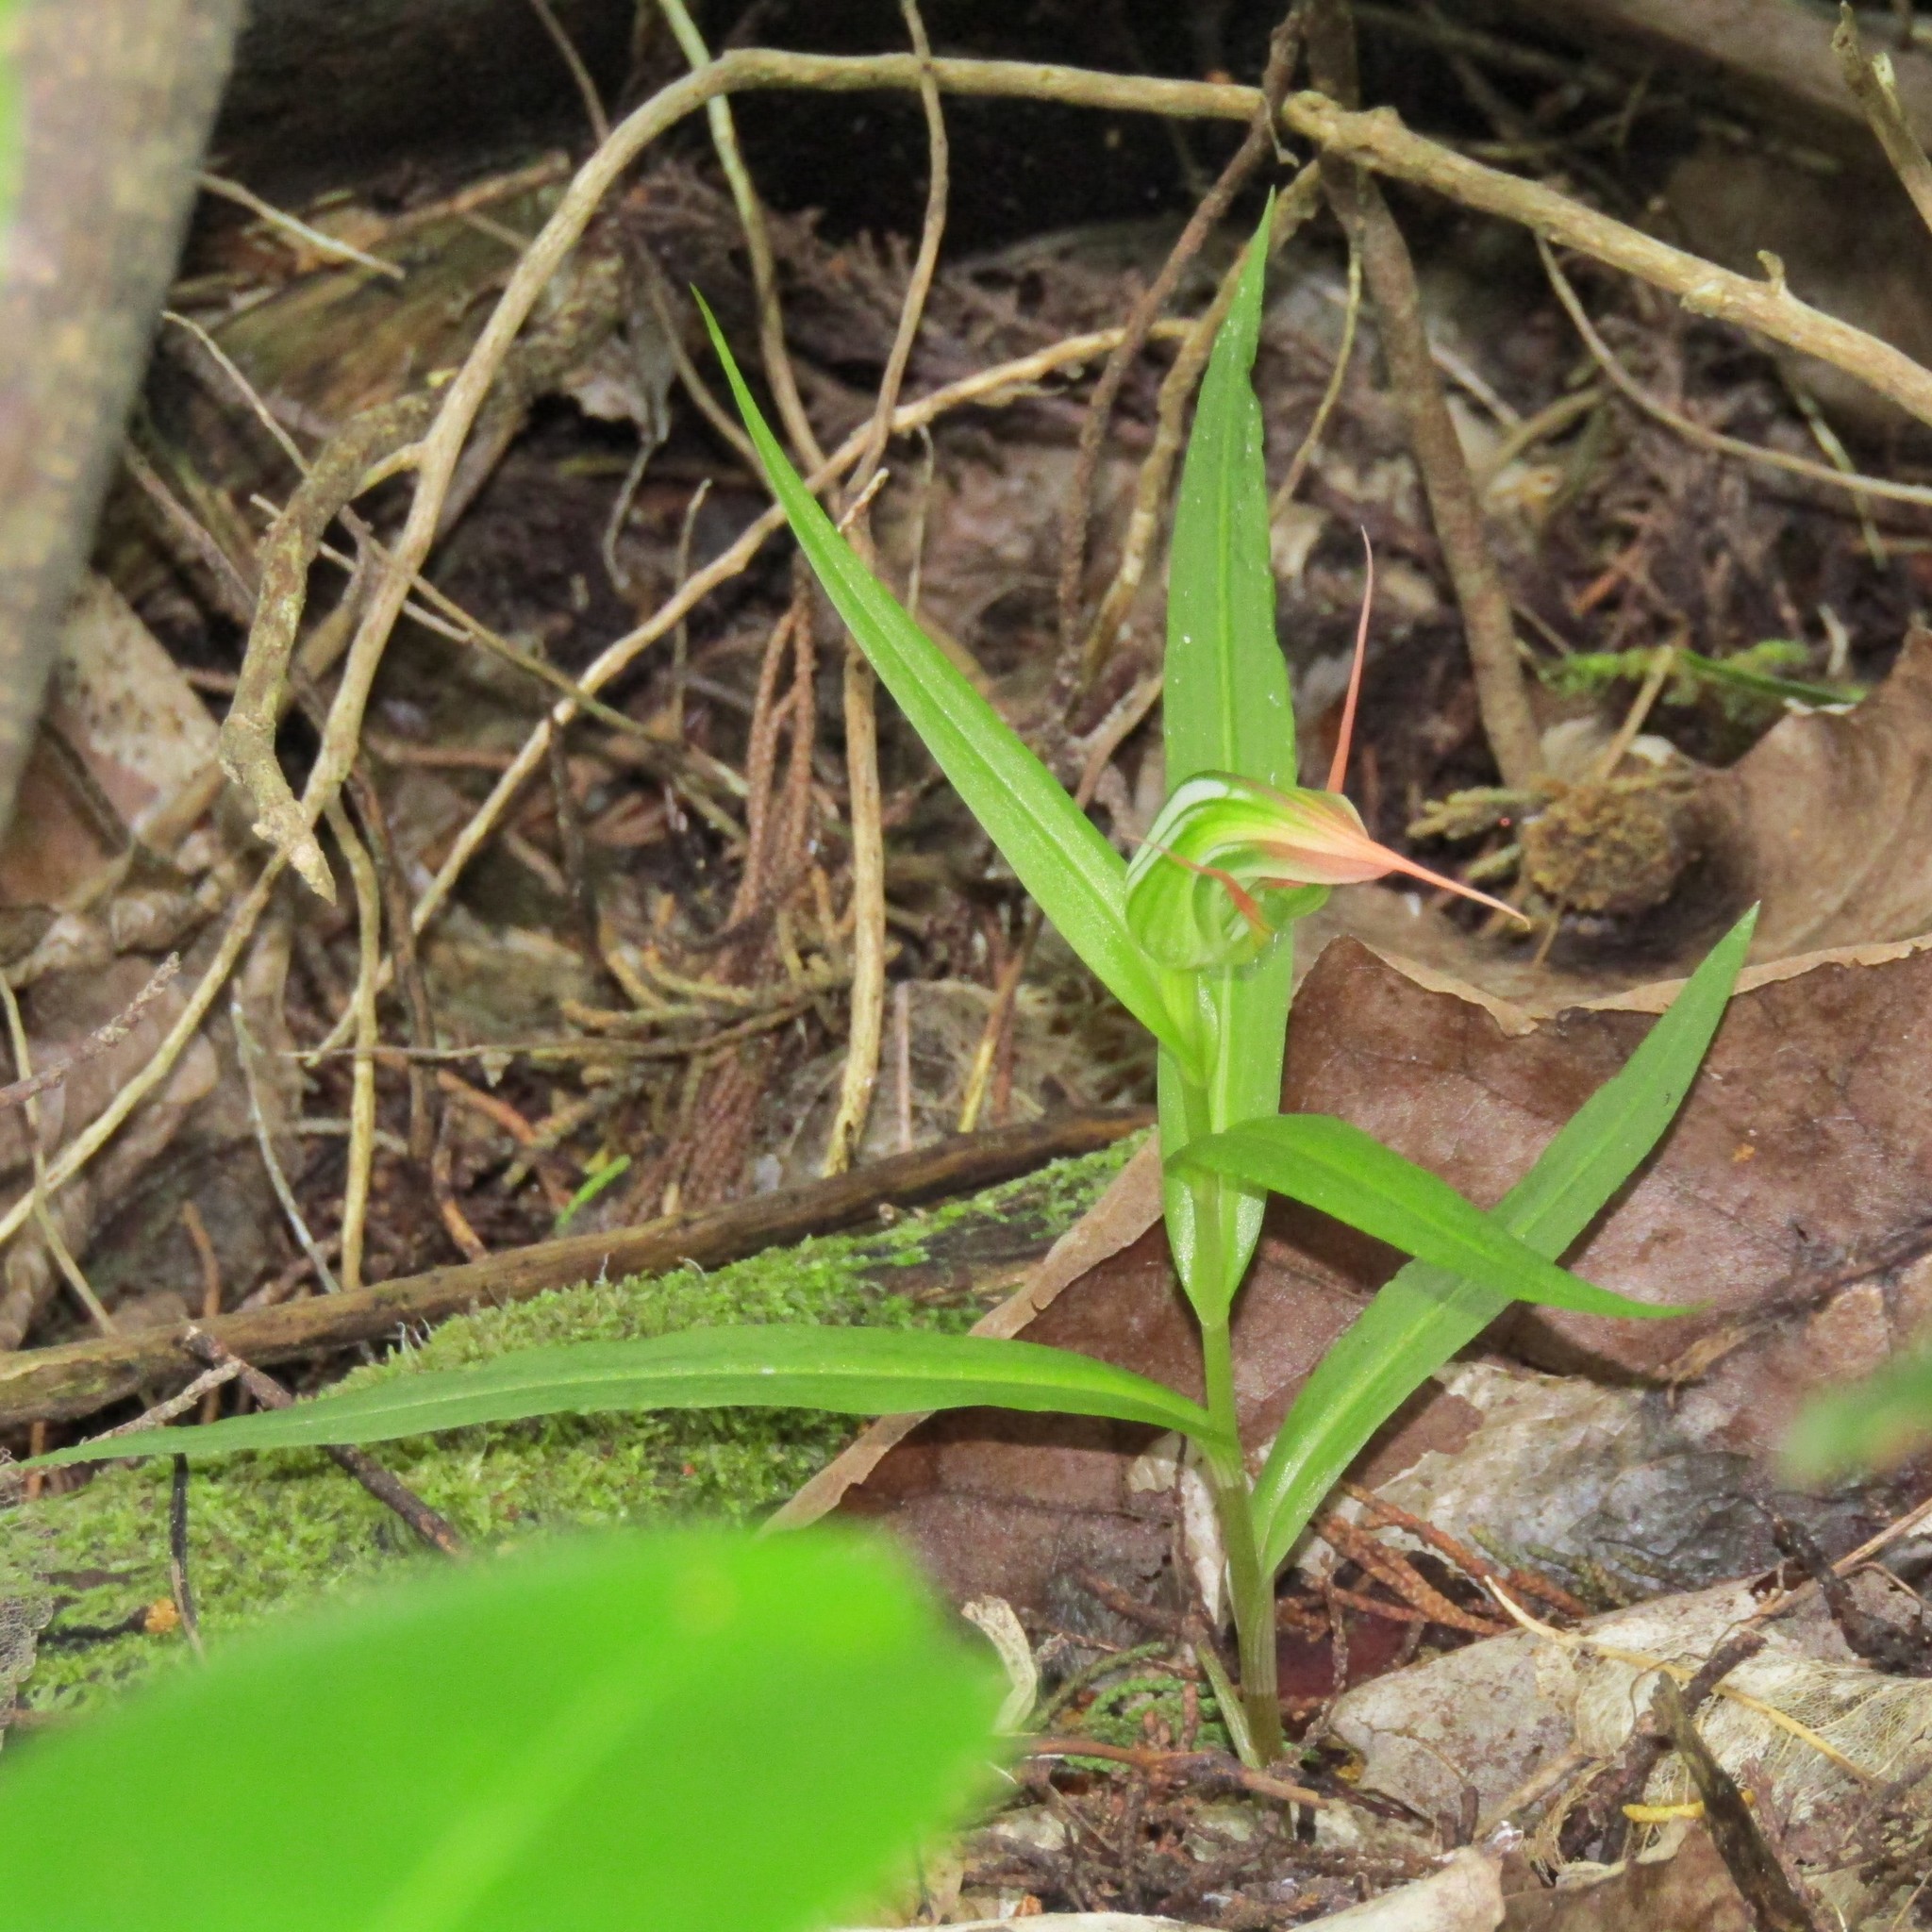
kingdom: Plantae
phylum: Tracheophyta
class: Liliopsida
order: Asparagales
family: Orchidaceae
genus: Pterostylis
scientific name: Pterostylis banksii
